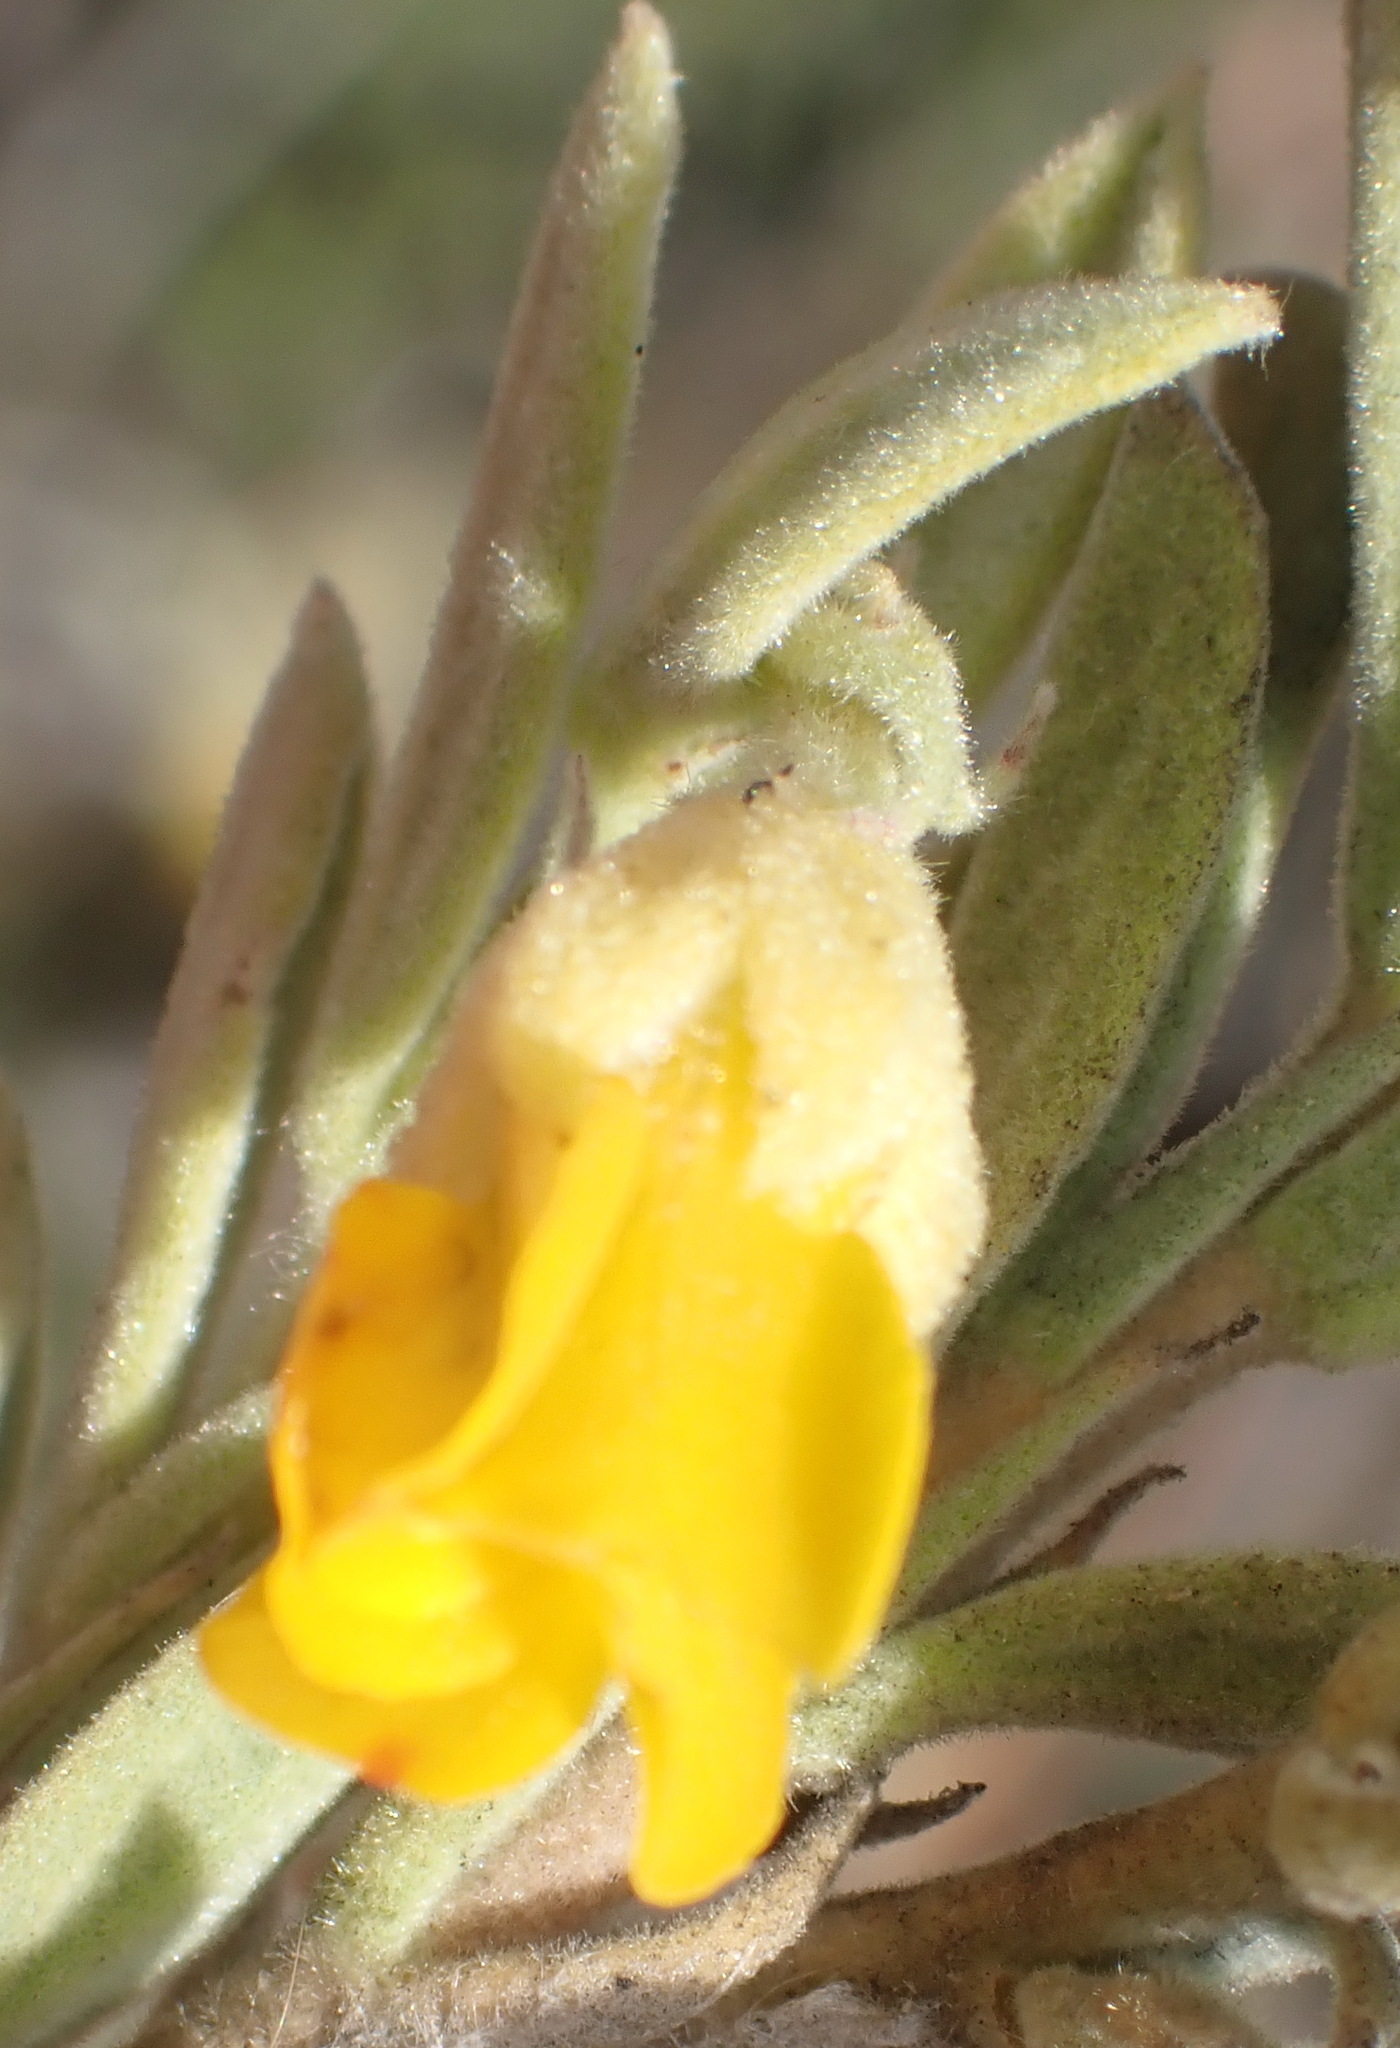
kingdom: Plantae
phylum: Tracheophyta
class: Magnoliopsida
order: Malvales
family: Malvaceae
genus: Hermannia
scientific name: Hermannia odorata
